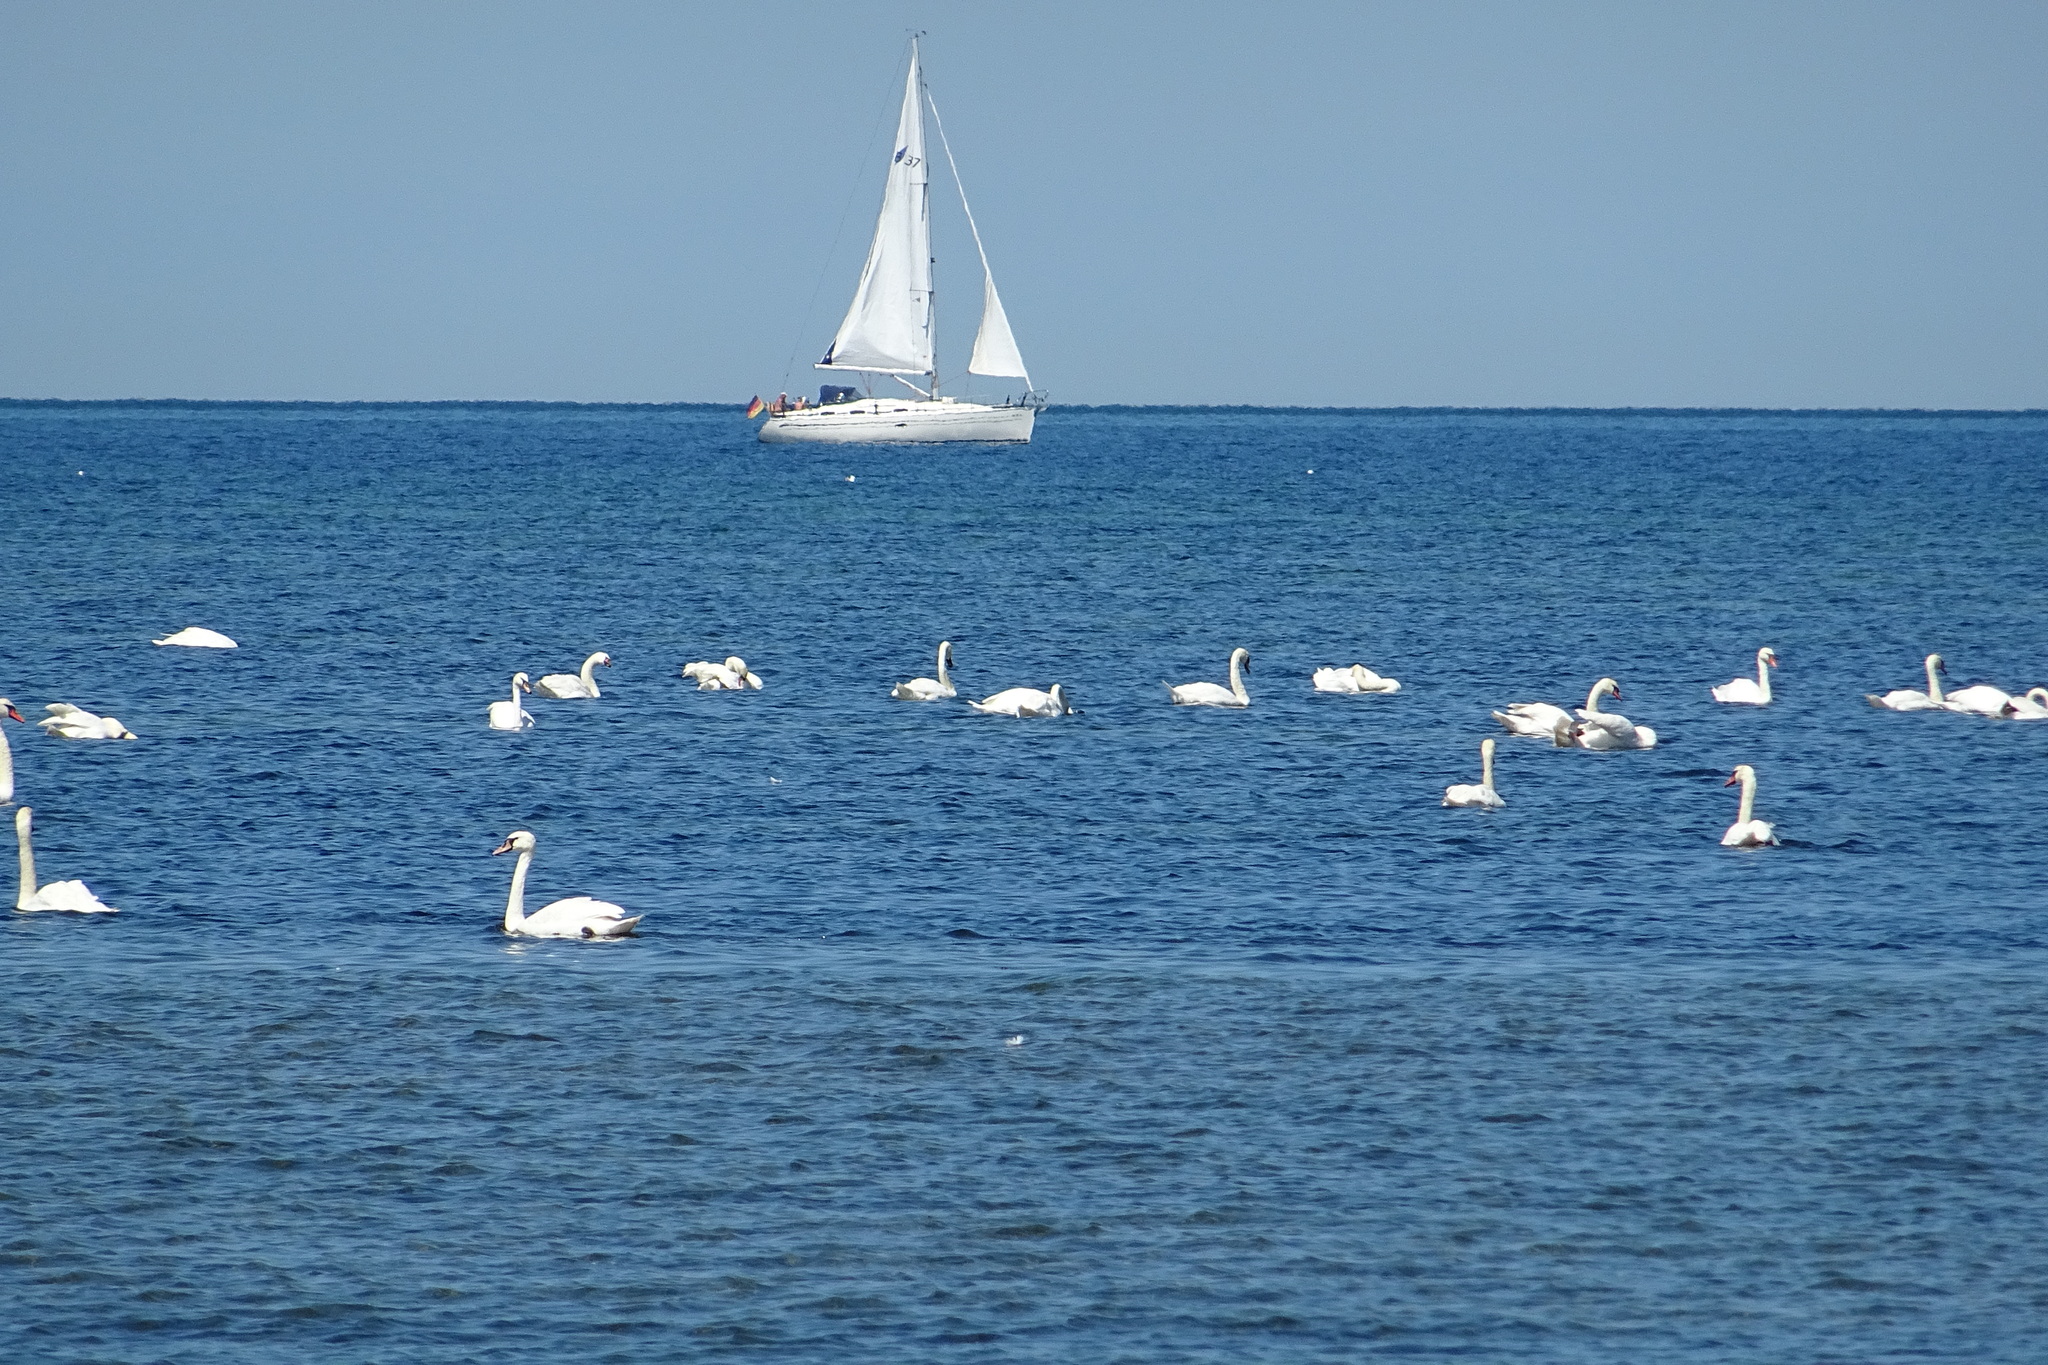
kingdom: Animalia
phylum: Chordata
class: Aves
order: Anseriformes
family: Anatidae
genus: Cygnus
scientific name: Cygnus olor
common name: Mute swan
